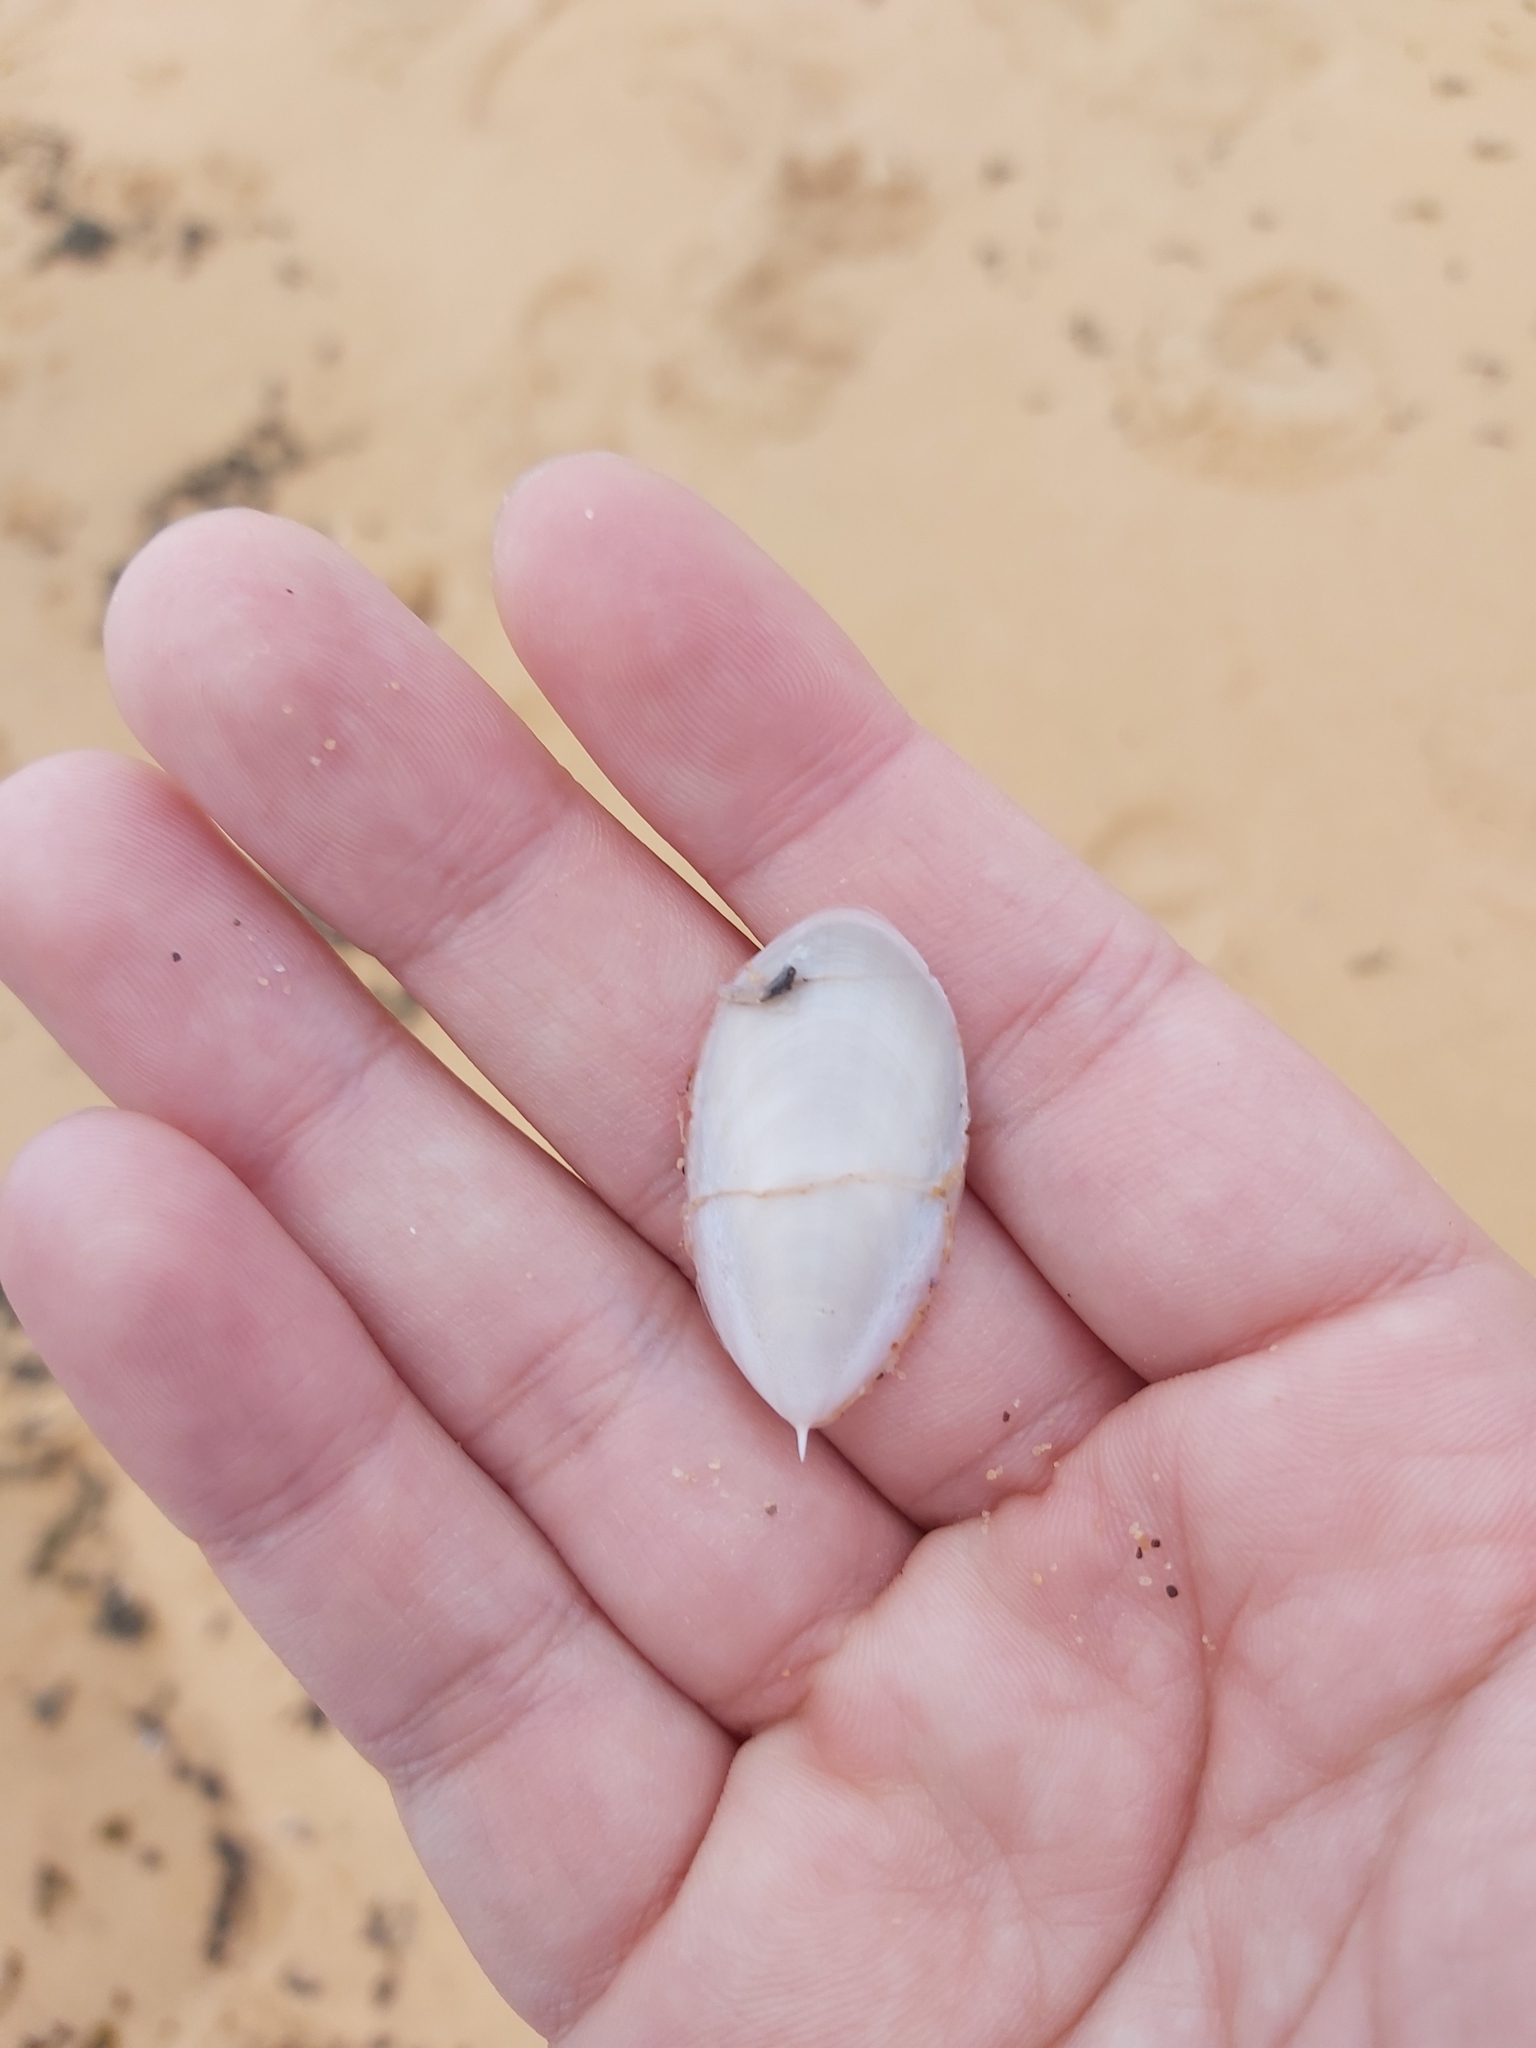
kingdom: Animalia
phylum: Mollusca
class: Cephalopoda
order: Sepiida
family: Sepiidae
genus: Ascarosepion
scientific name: Ascarosepion mestus
